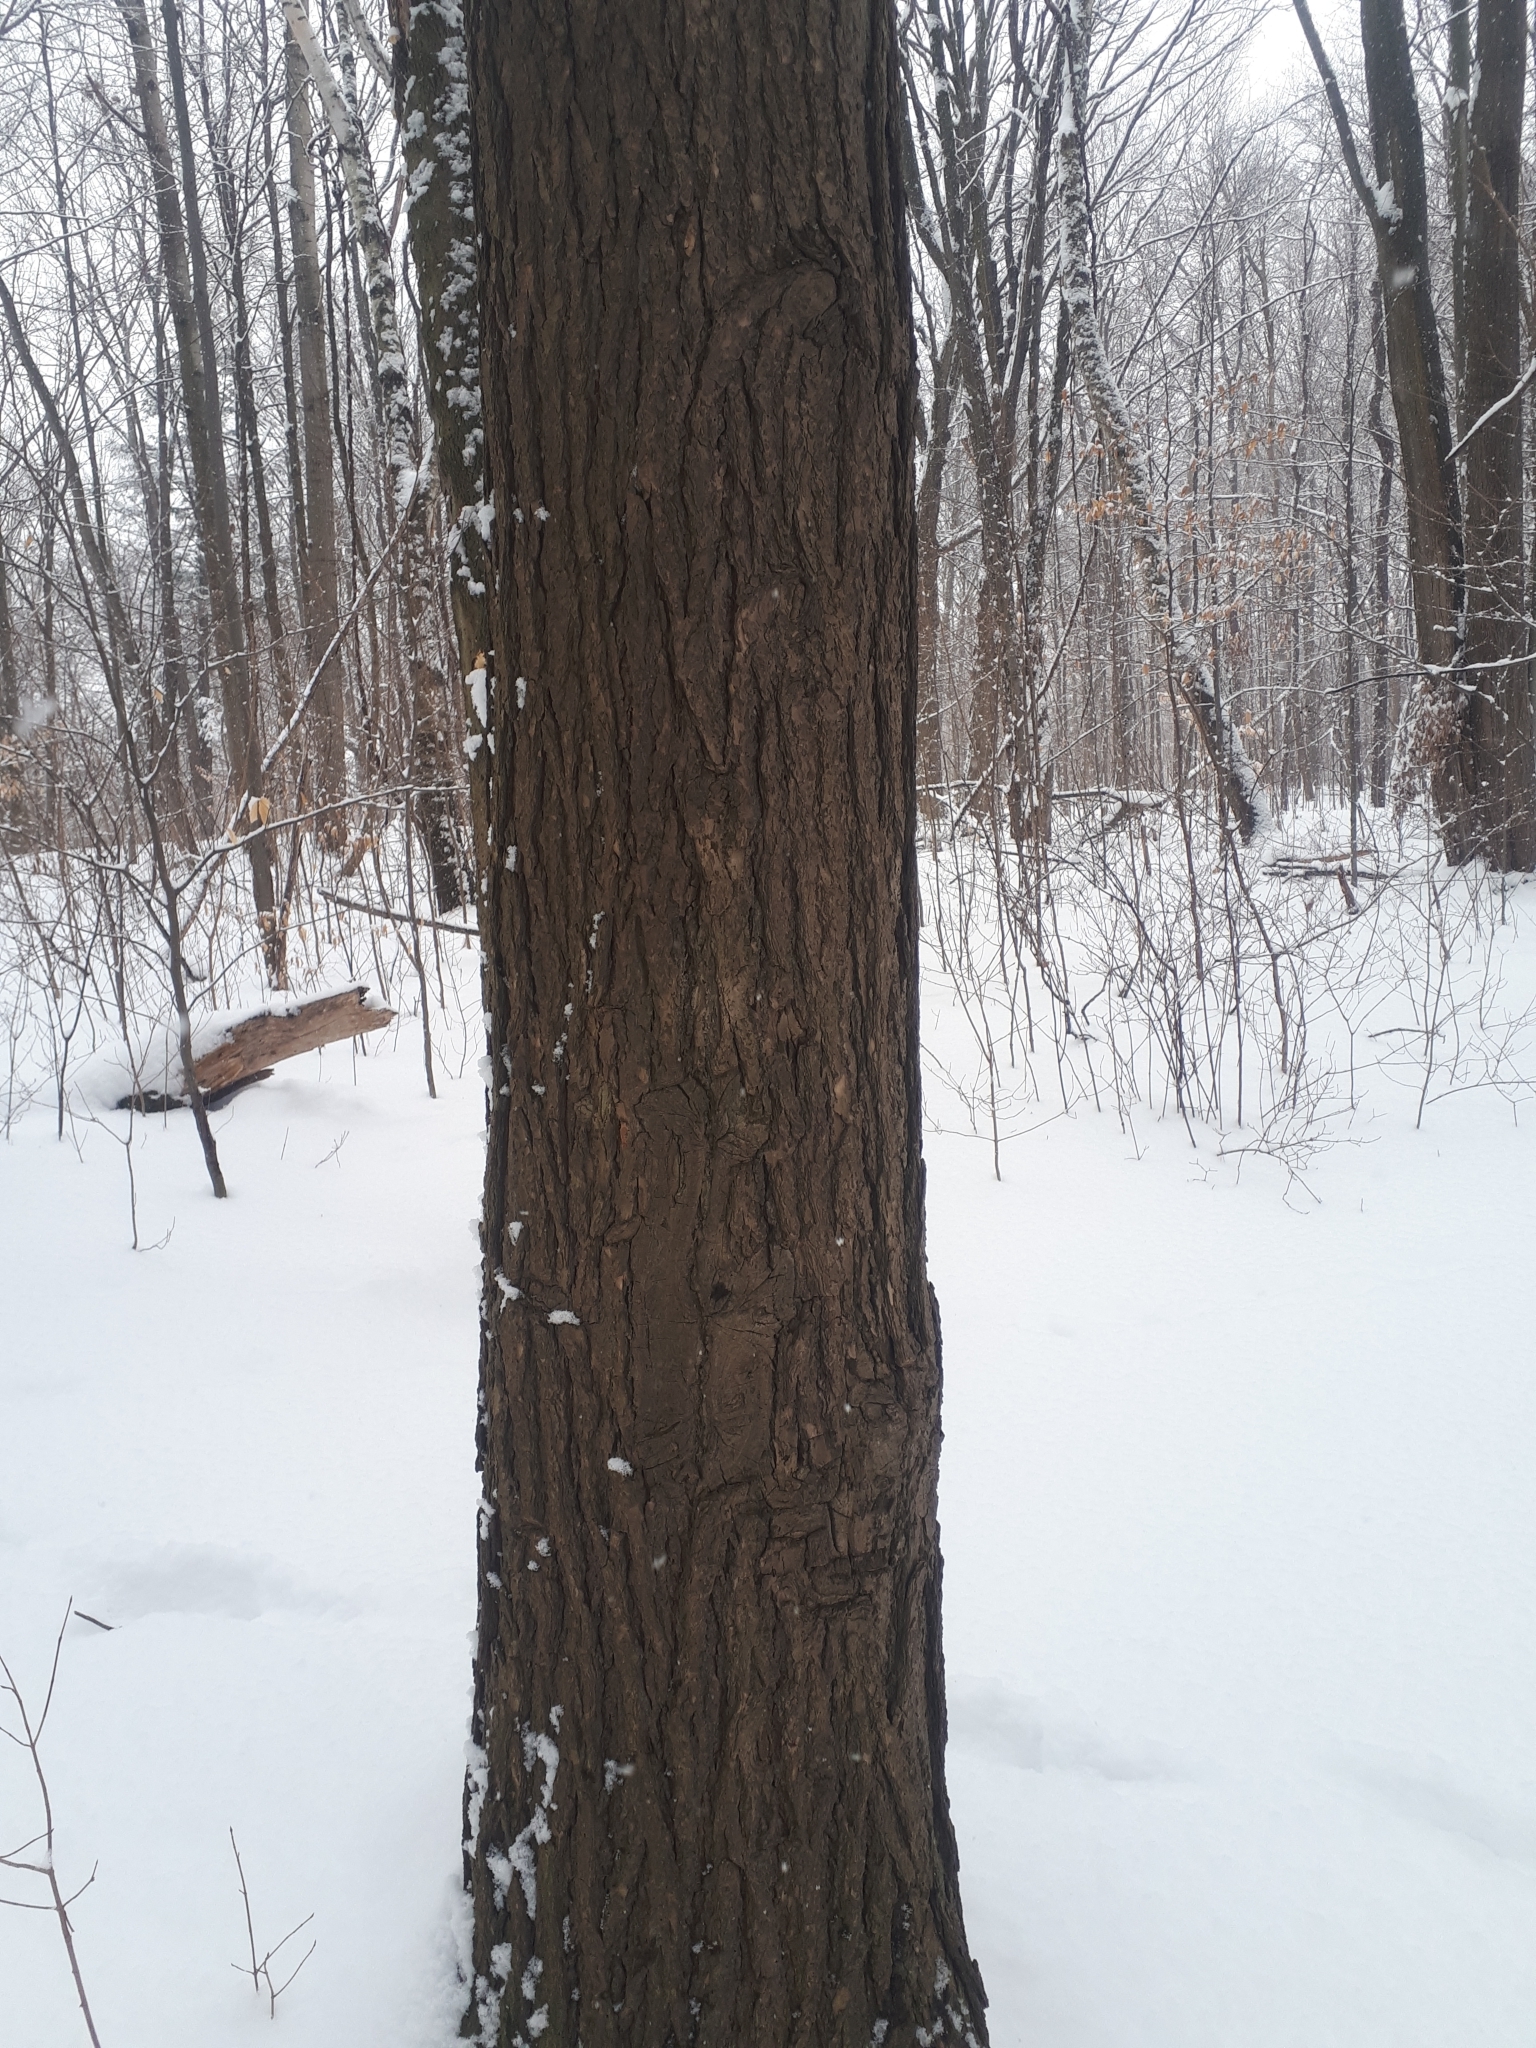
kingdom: Plantae
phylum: Tracheophyta
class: Pinopsida
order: Pinales
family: Pinaceae
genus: Tsuga
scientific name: Tsuga canadensis
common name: Eastern hemlock
